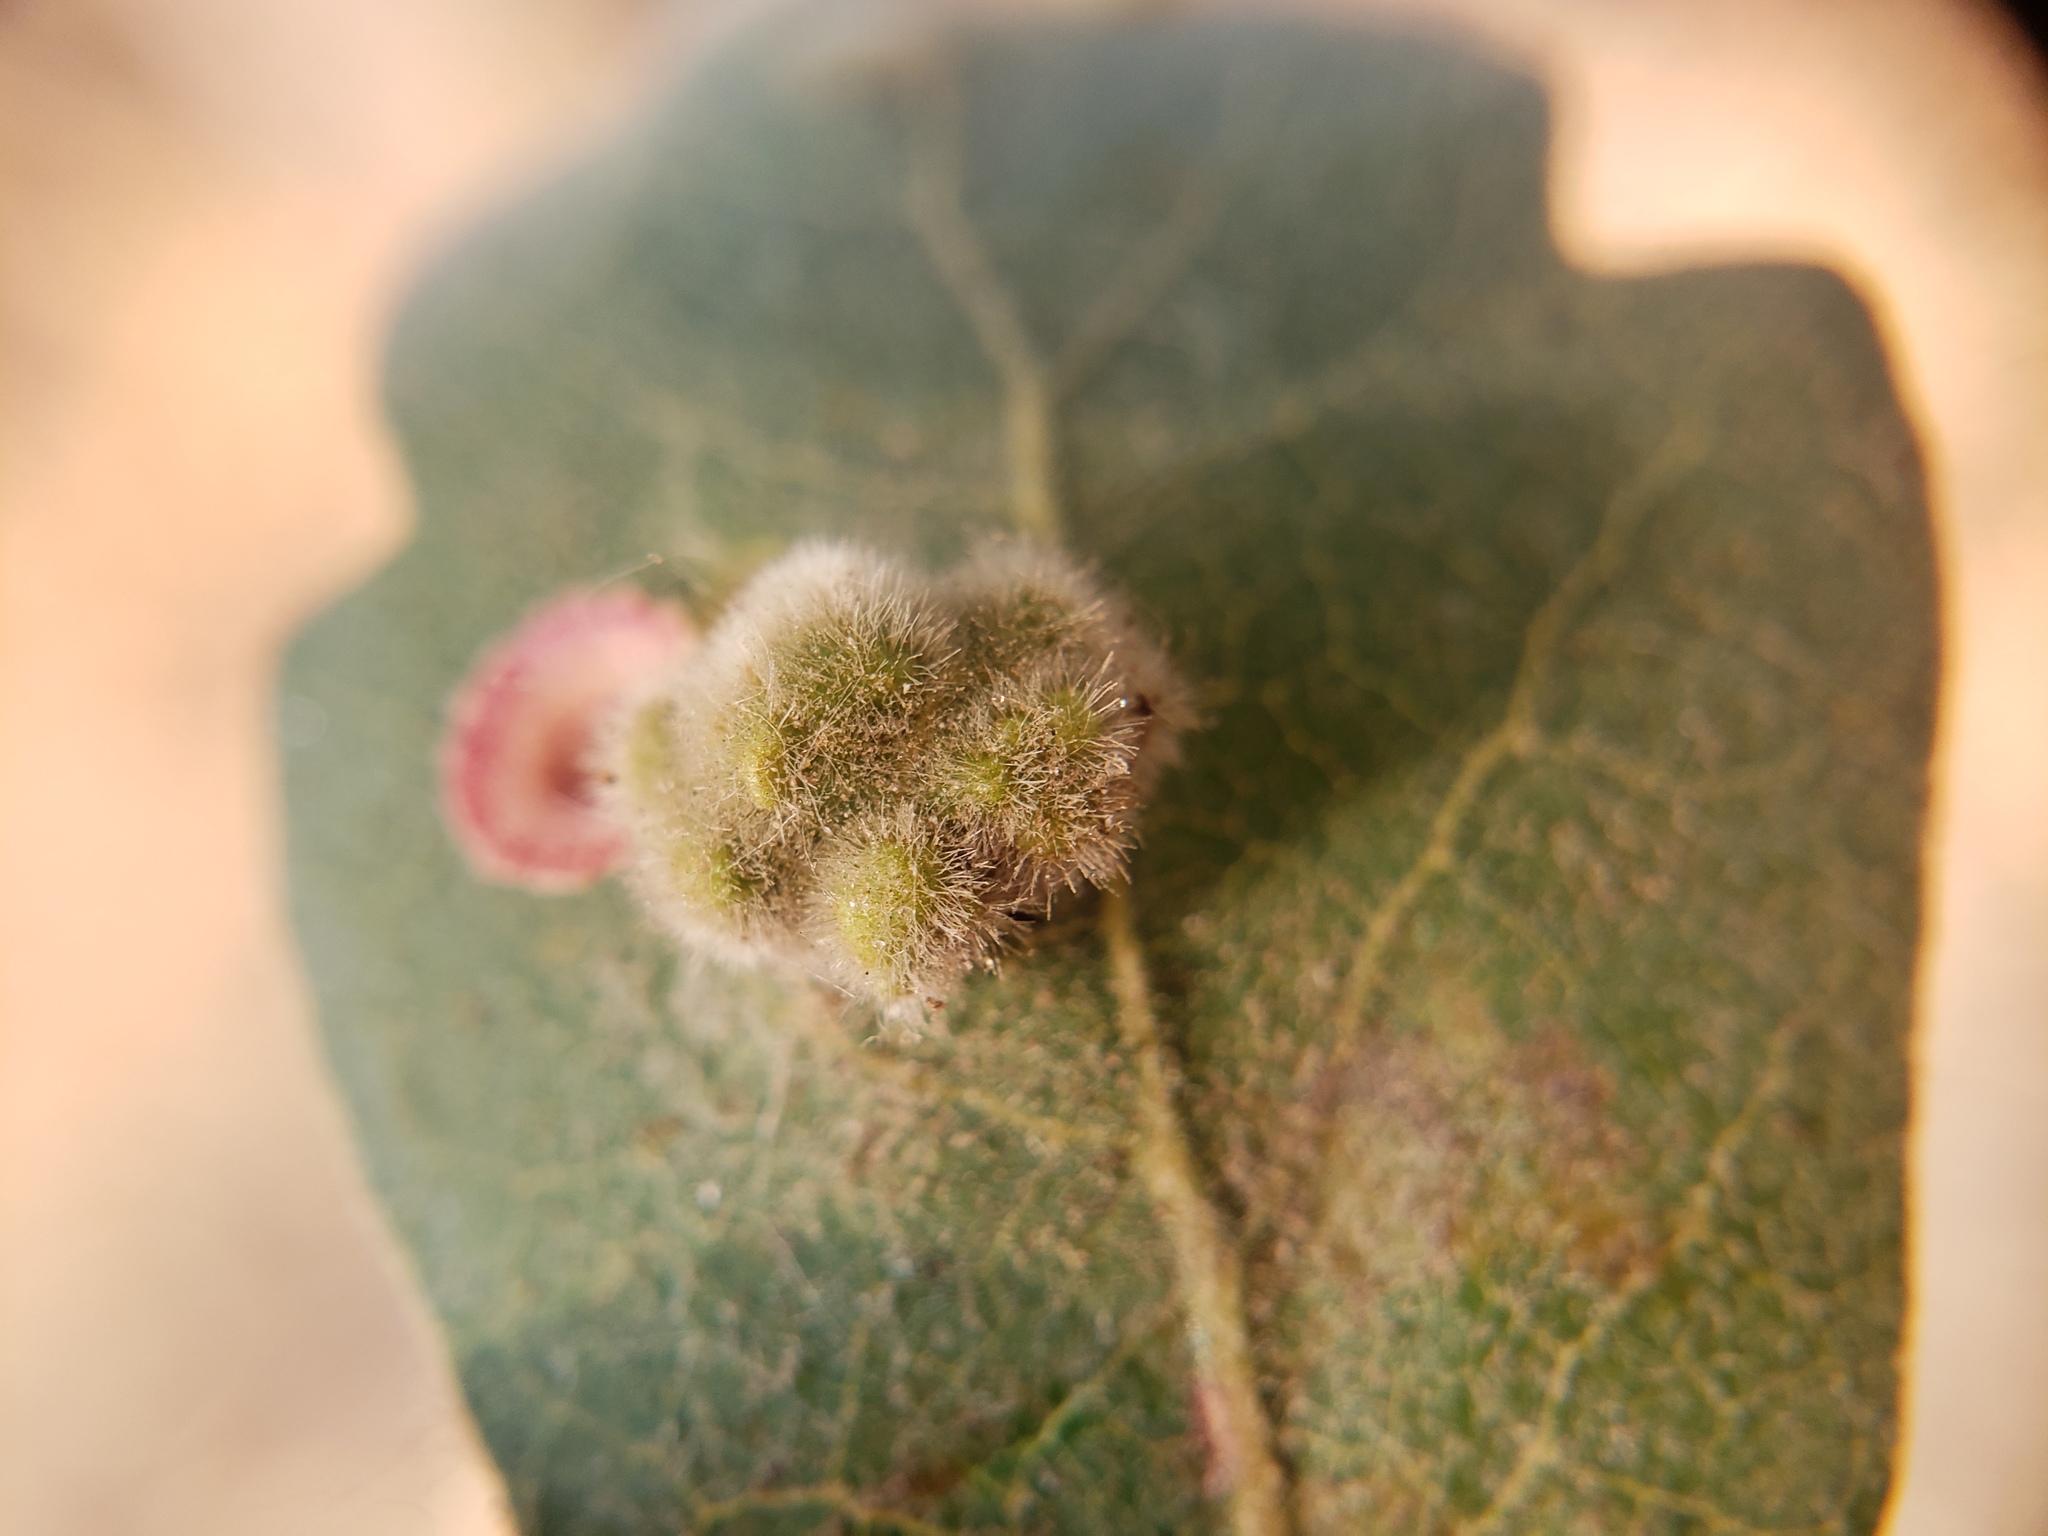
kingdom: Animalia
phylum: Arthropoda
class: Arachnida
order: Trombidiformes
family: Eriophyidae
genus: Aceria
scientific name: Aceria
